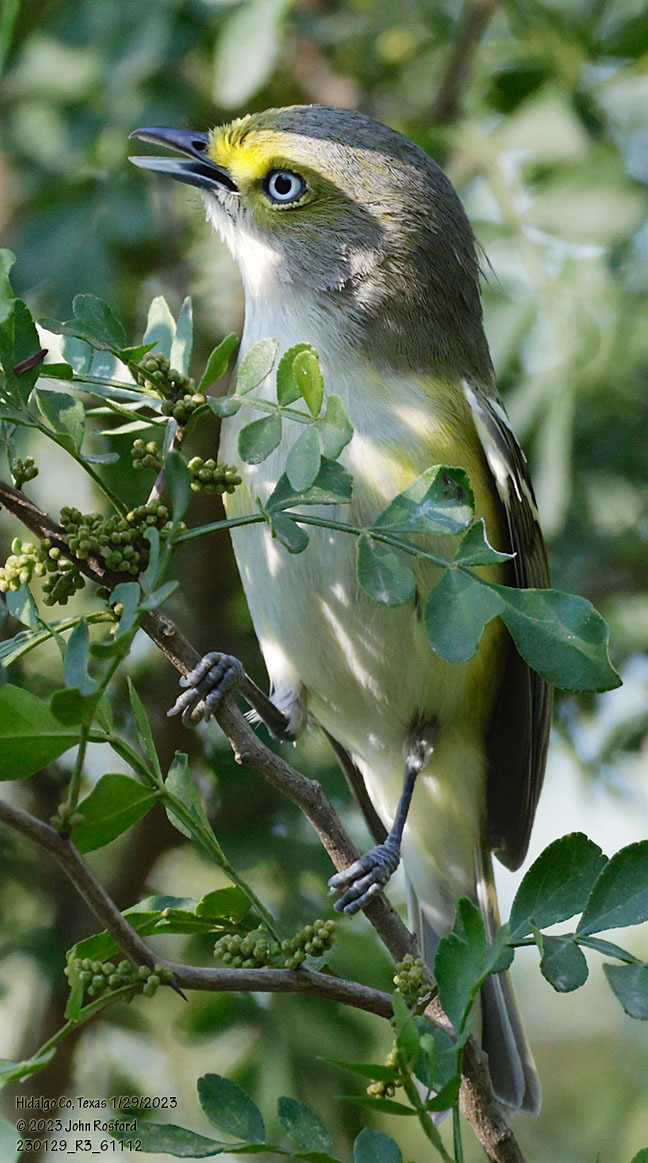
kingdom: Animalia
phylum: Chordata
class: Aves
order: Passeriformes
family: Vireonidae
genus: Vireo
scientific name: Vireo griseus
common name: White-eyed vireo
